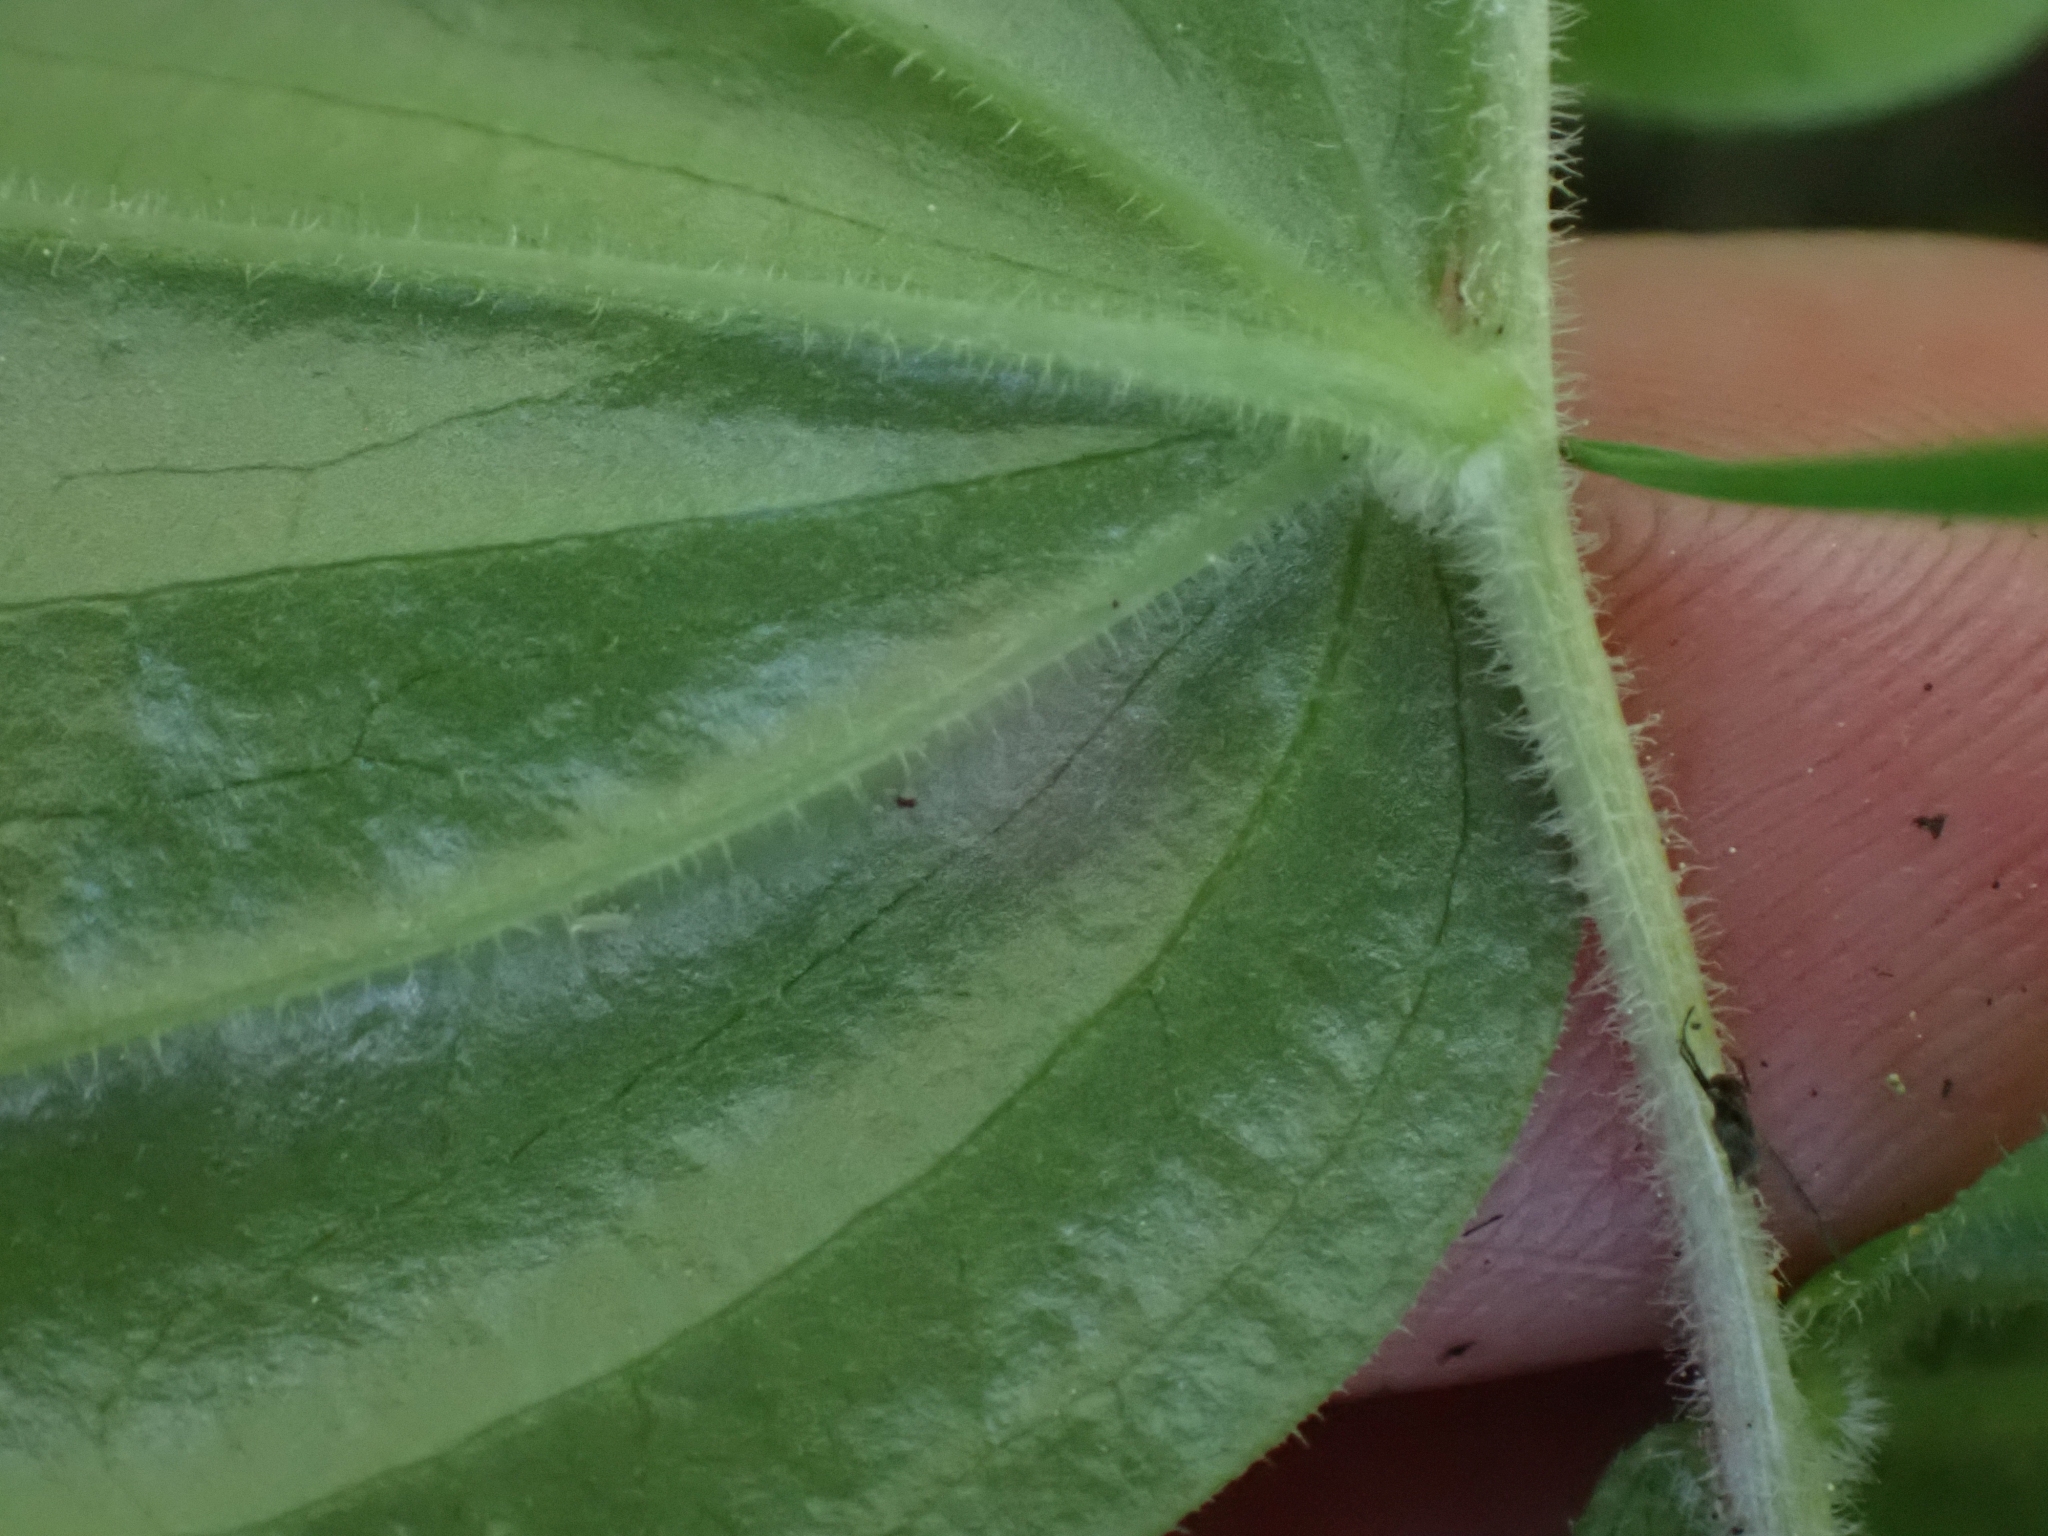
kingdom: Plantae
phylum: Tracheophyta
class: Liliopsida
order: Liliales
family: Liliaceae
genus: Prosartes
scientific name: Prosartes trachycarpa
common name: Rough-fruit fairy-bells
